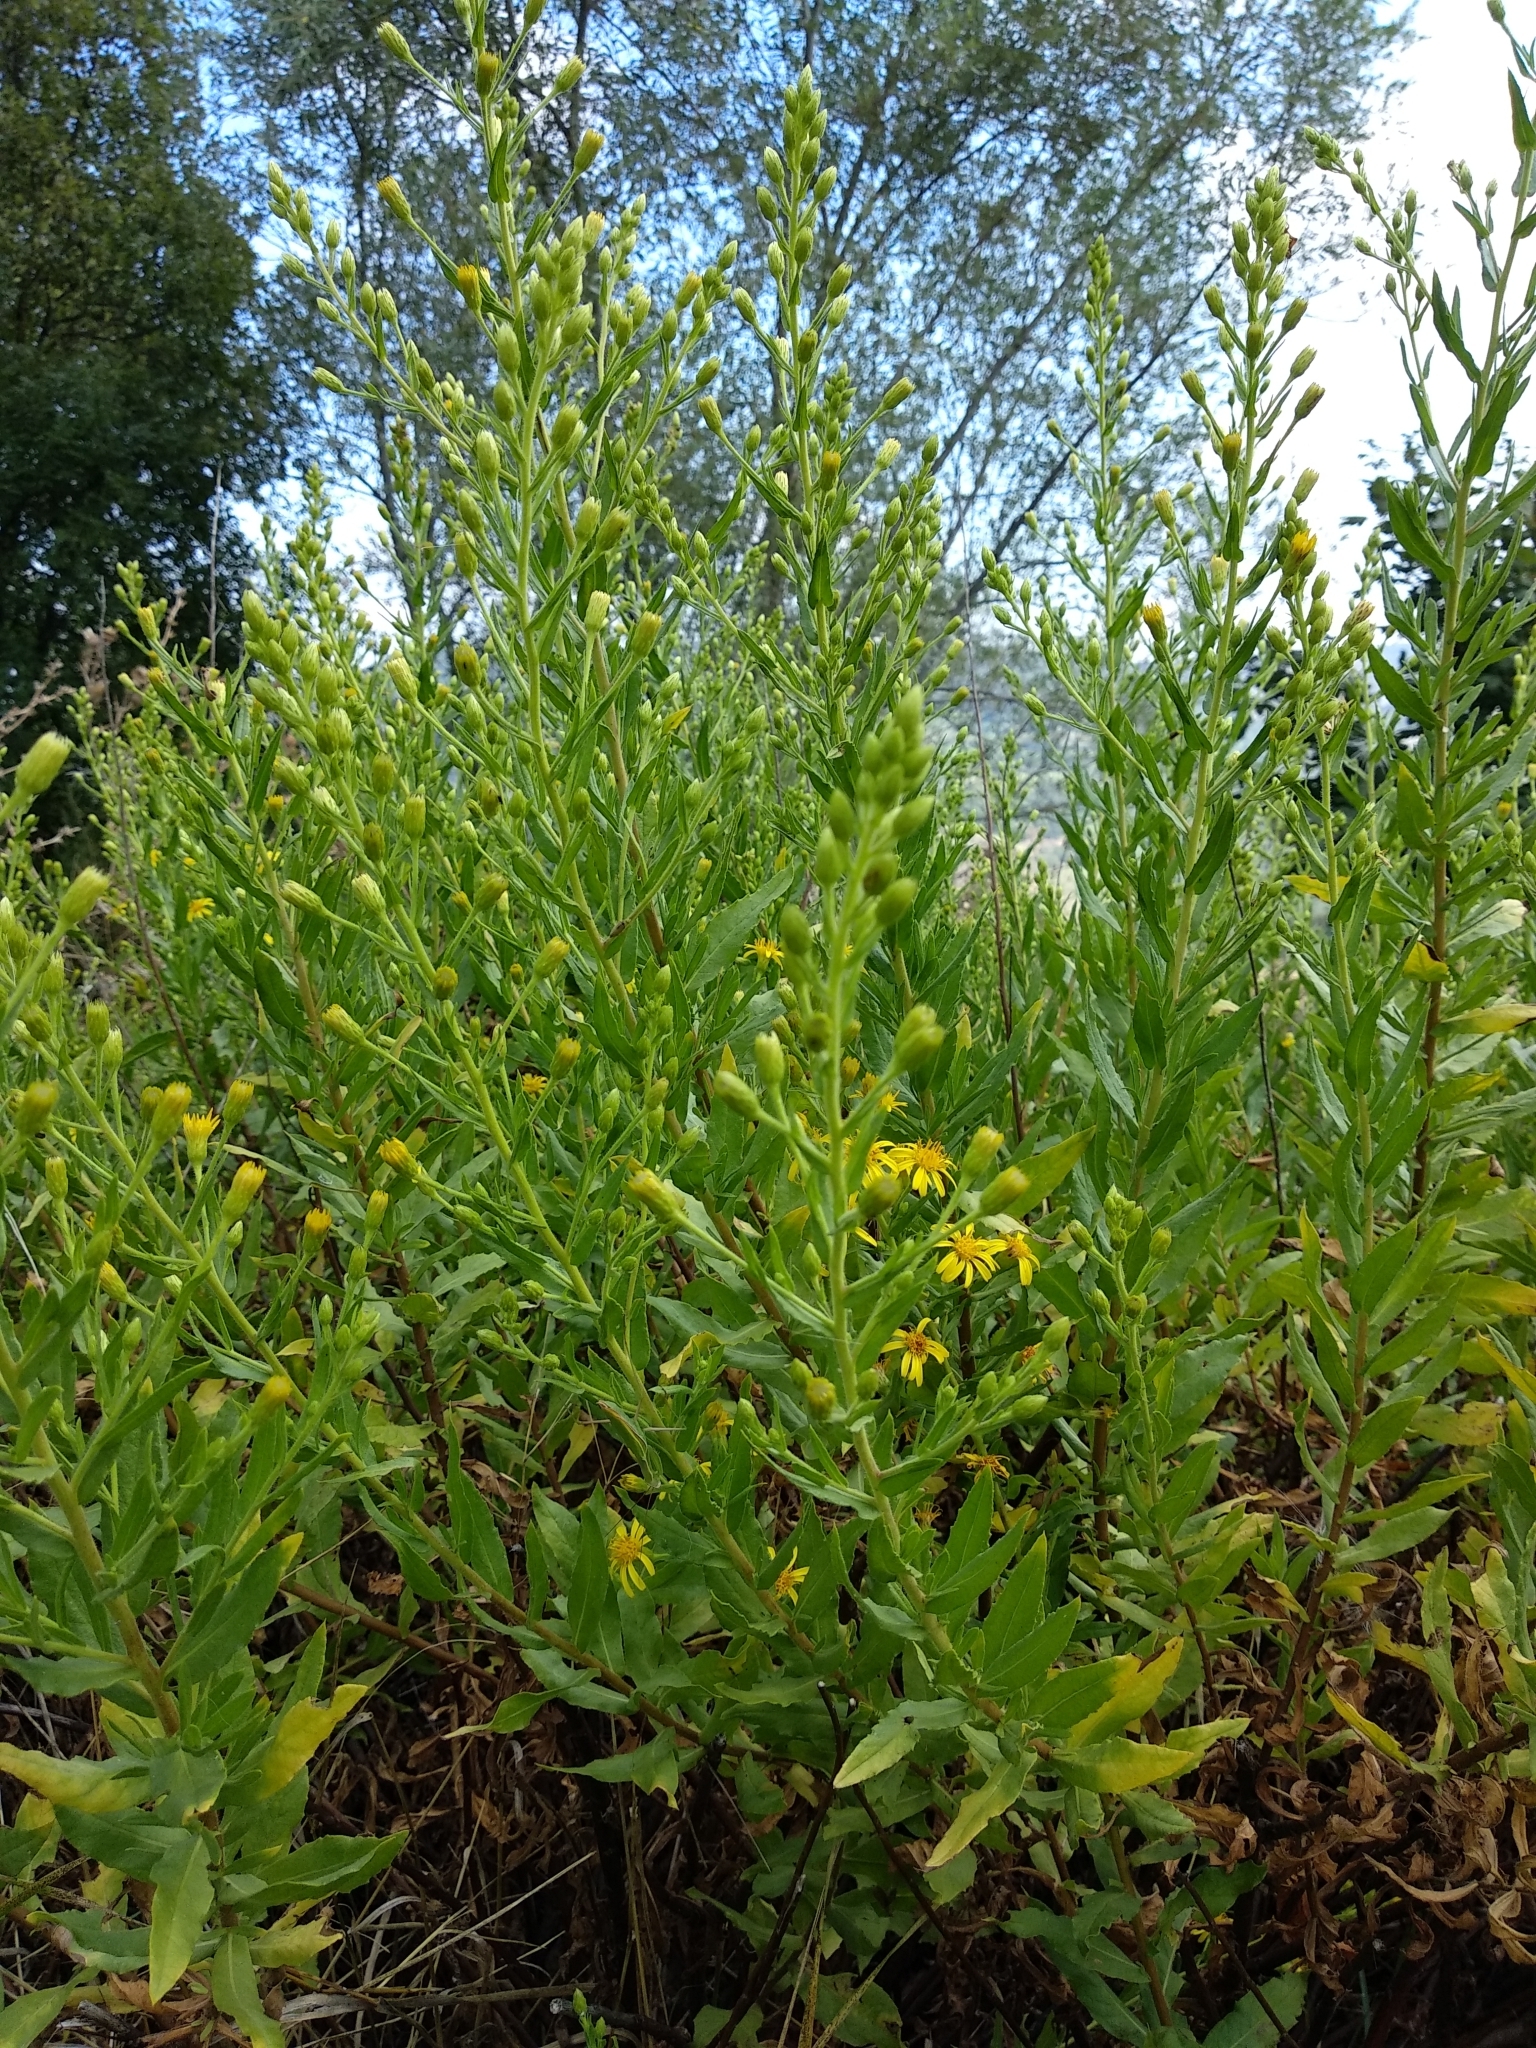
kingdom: Plantae
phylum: Tracheophyta
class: Magnoliopsida
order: Asterales
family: Asteraceae
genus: Dittrichia
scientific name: Dittrichia viscosa
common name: Woody fleabane
